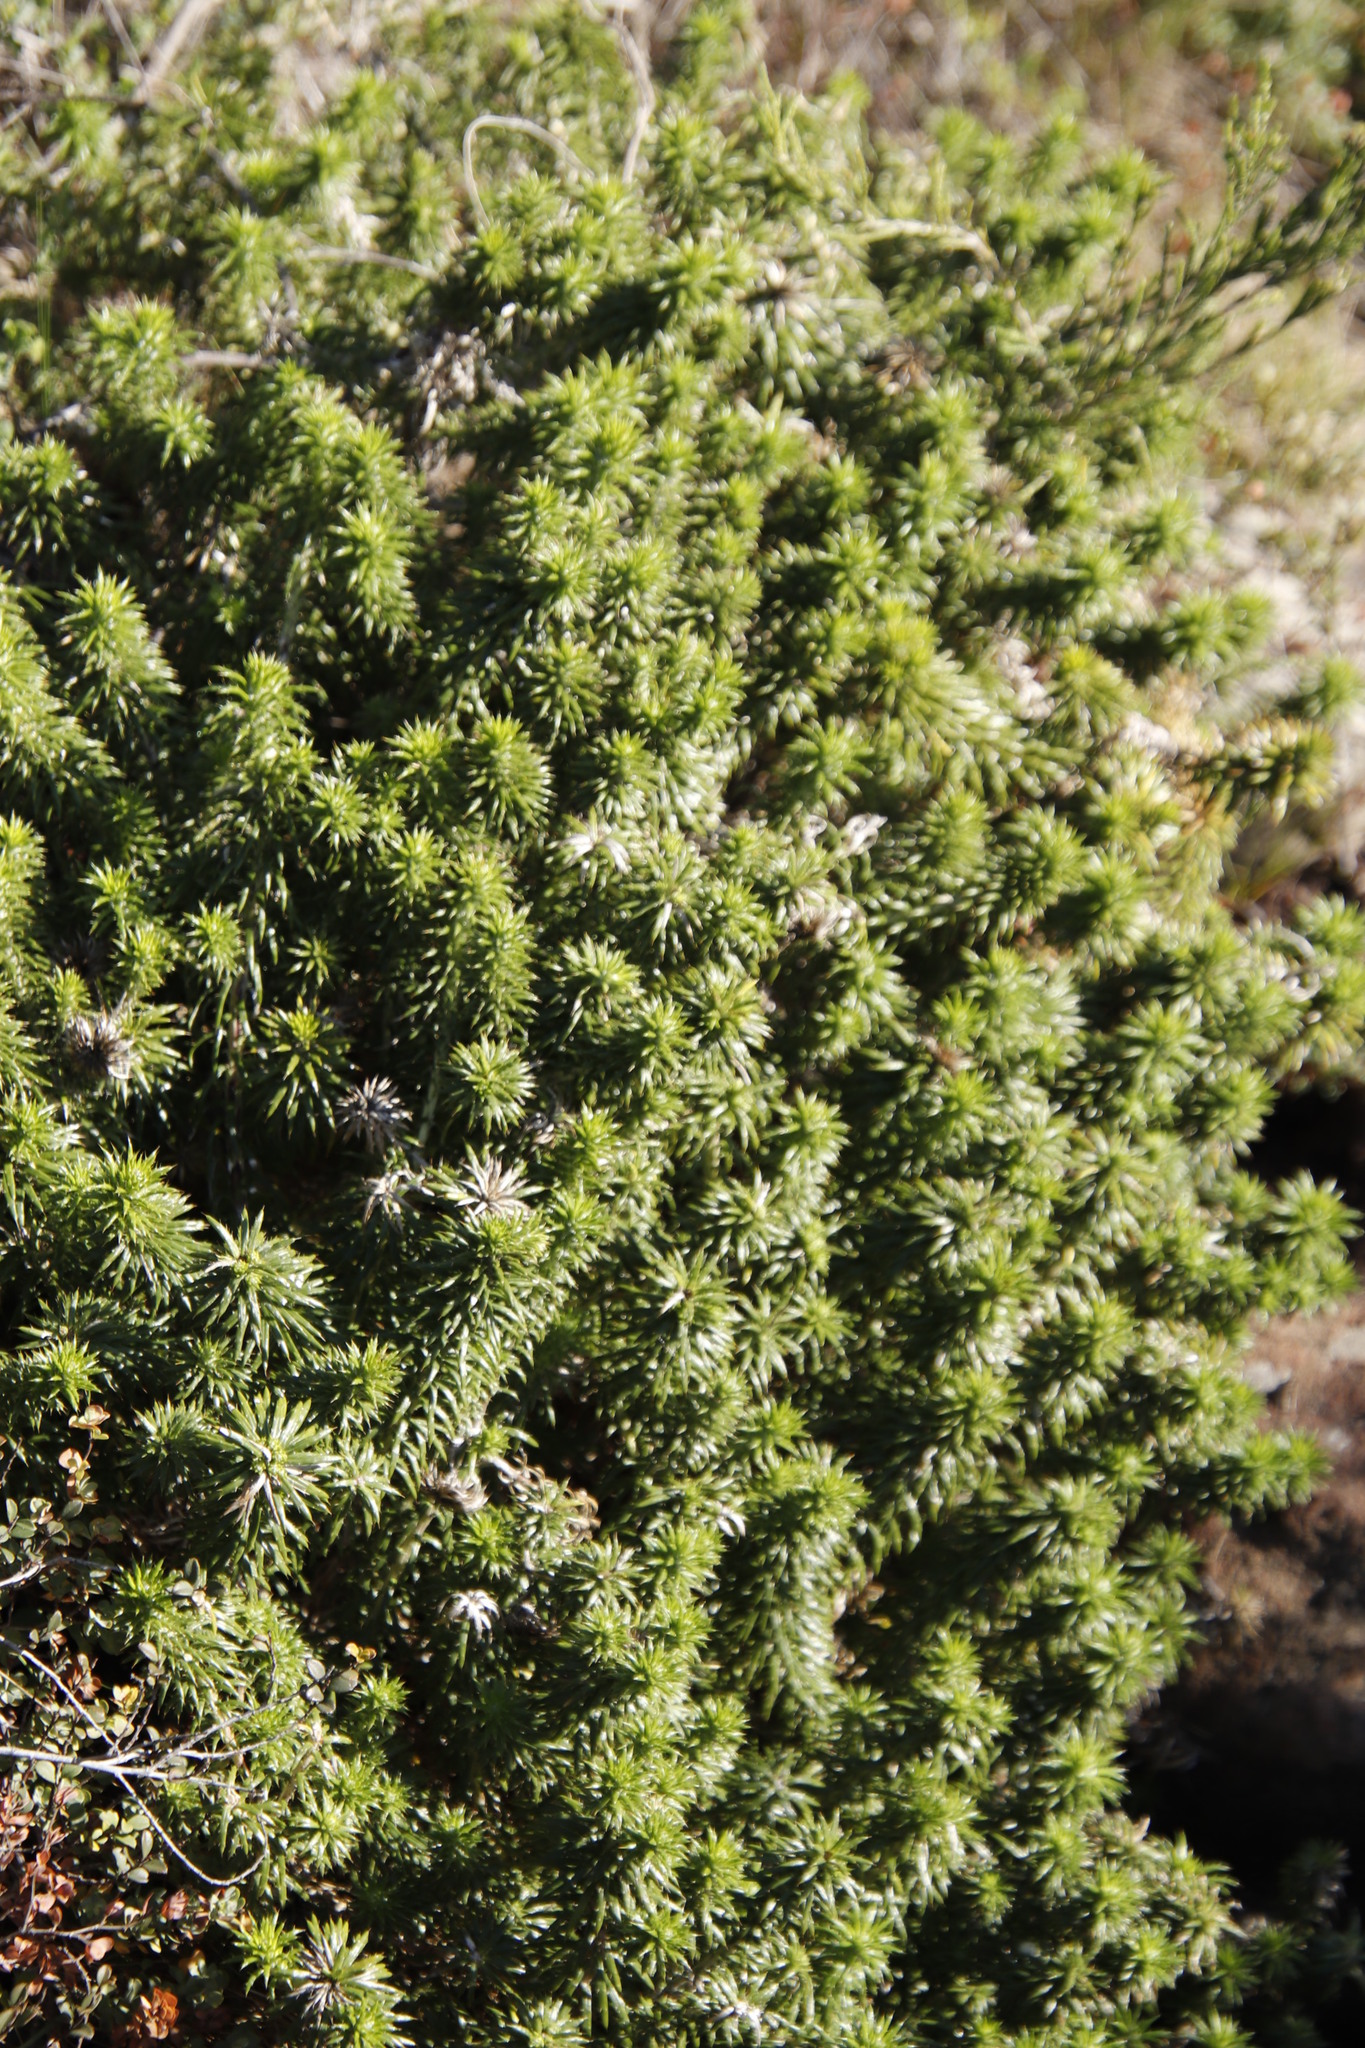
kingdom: Plantae
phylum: Tracheophyta
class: Magnoliopsida
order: Asterales
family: Asteraceae
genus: Cullumia
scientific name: Cullumia squarrosa
